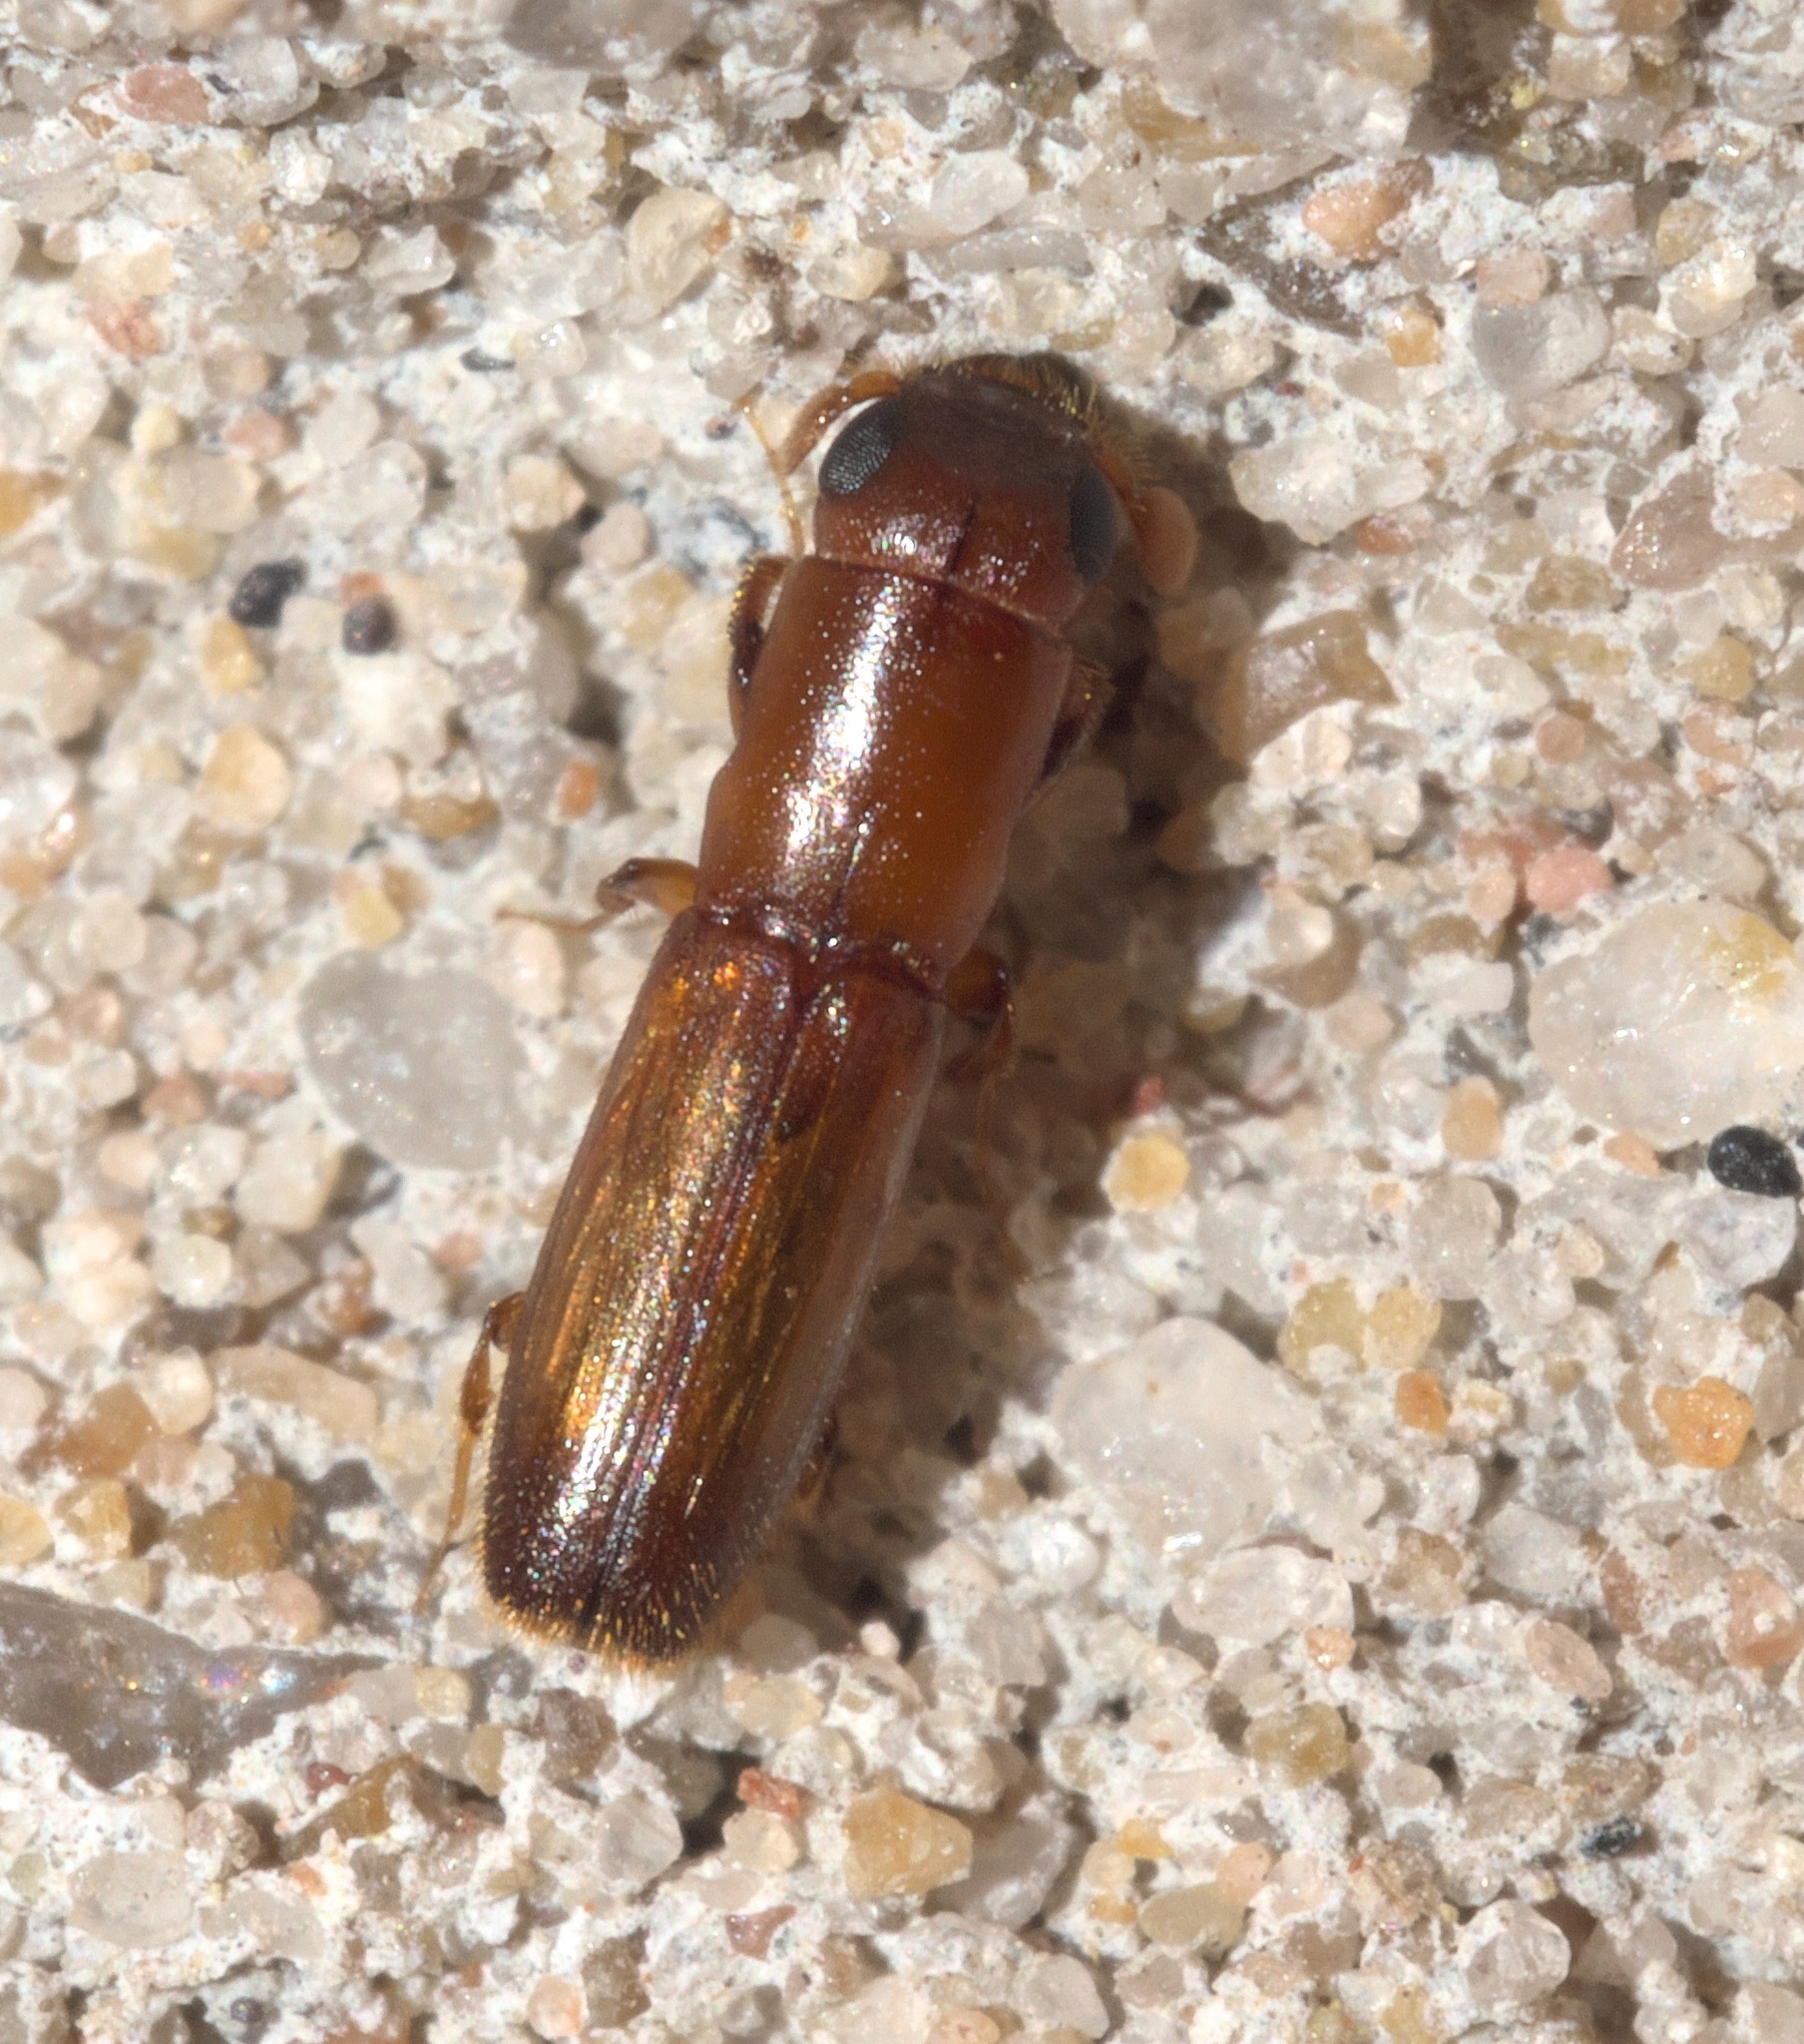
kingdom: Animalia
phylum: Arthropoda
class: Insecta
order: Coleoptera
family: Curculionidae
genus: Euplatypus
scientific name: Euplatypus compositus
